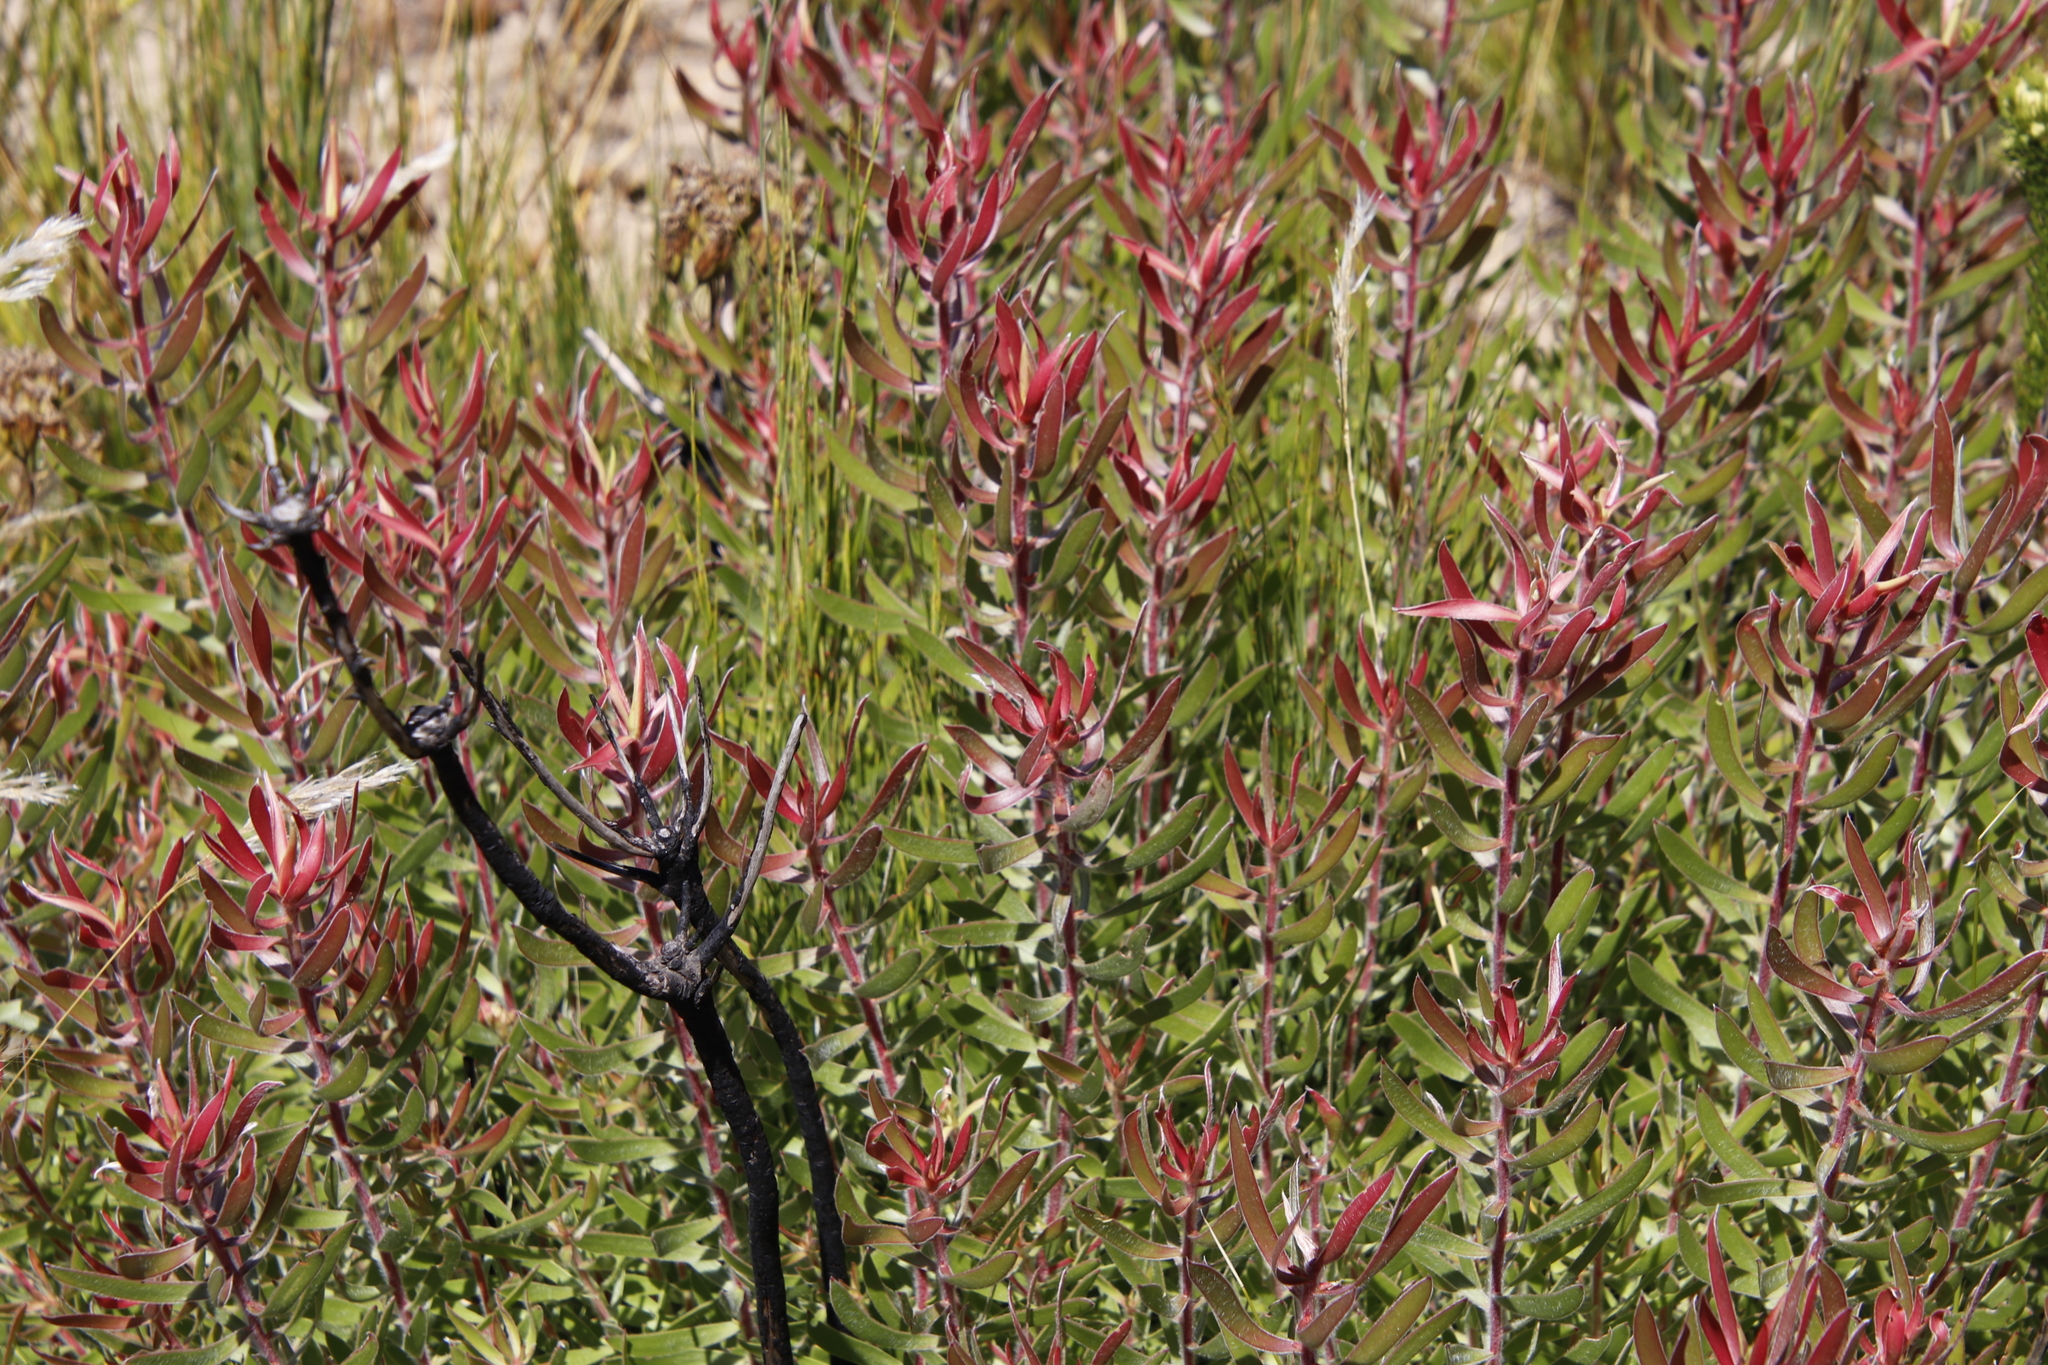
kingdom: Plantae
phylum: Tracheophyta
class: Magnoliopsida
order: Proteales
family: Proteaceae
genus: Leucadendron
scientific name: Leucadendron spissifolium
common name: Spear-leaf conebush
